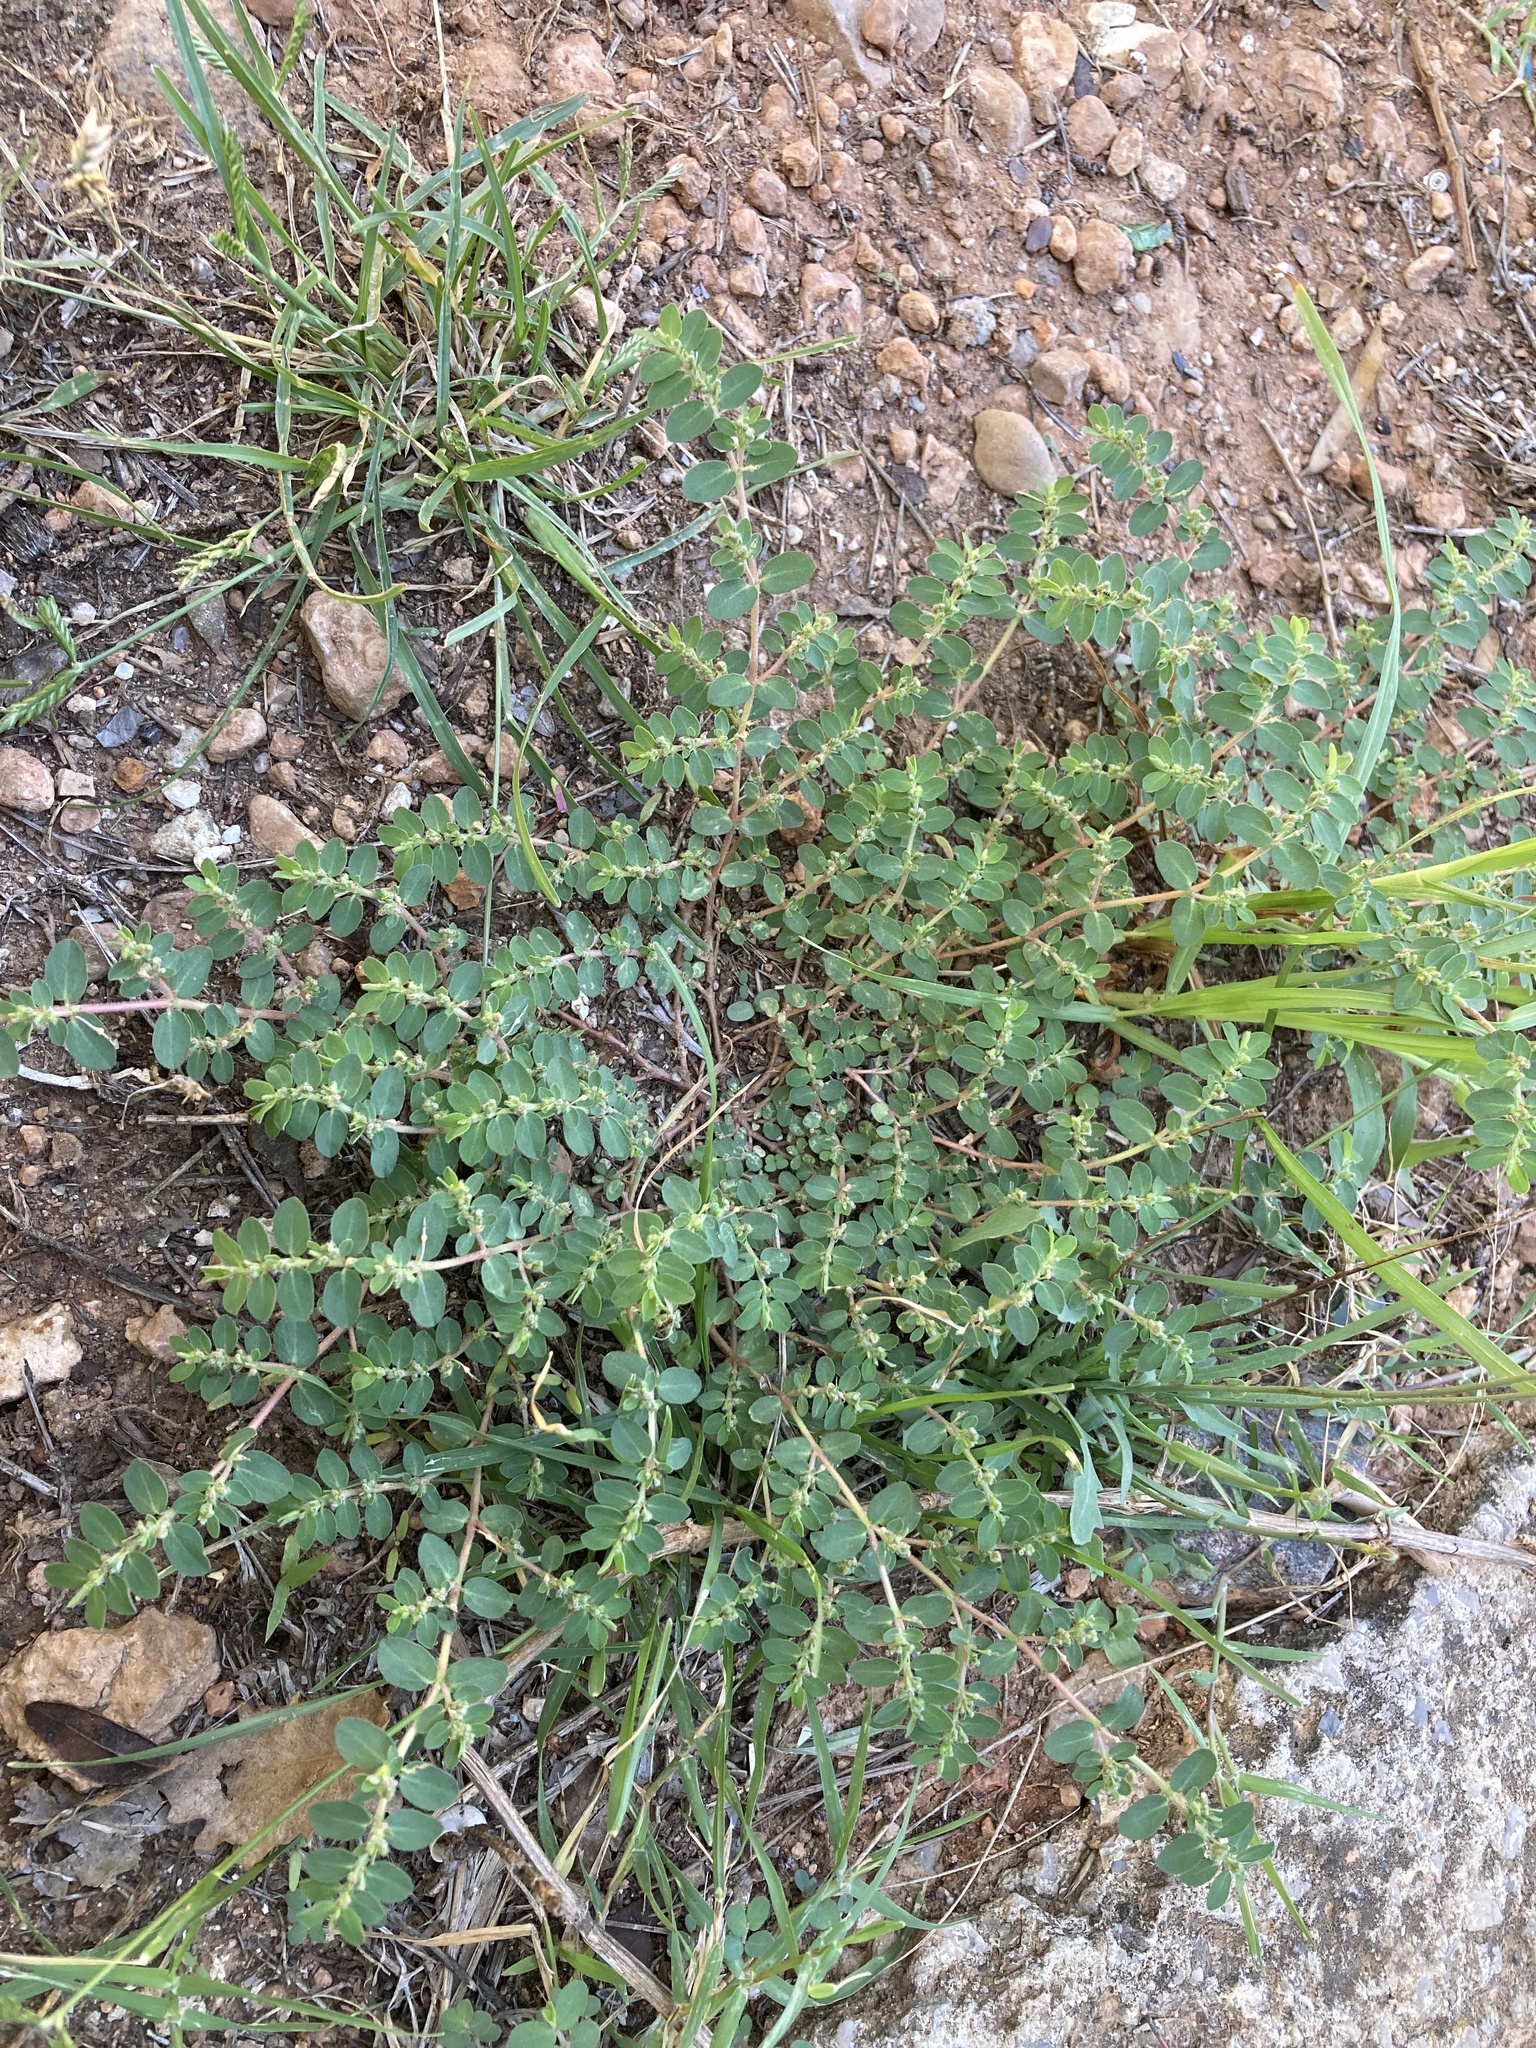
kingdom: Plantae
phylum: Tracheophyta
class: Magnoliopsida
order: Malpighiales
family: Euphorbiaceae
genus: Euphorbia
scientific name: Euphorbia prostrata
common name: Prostrate sandmat
